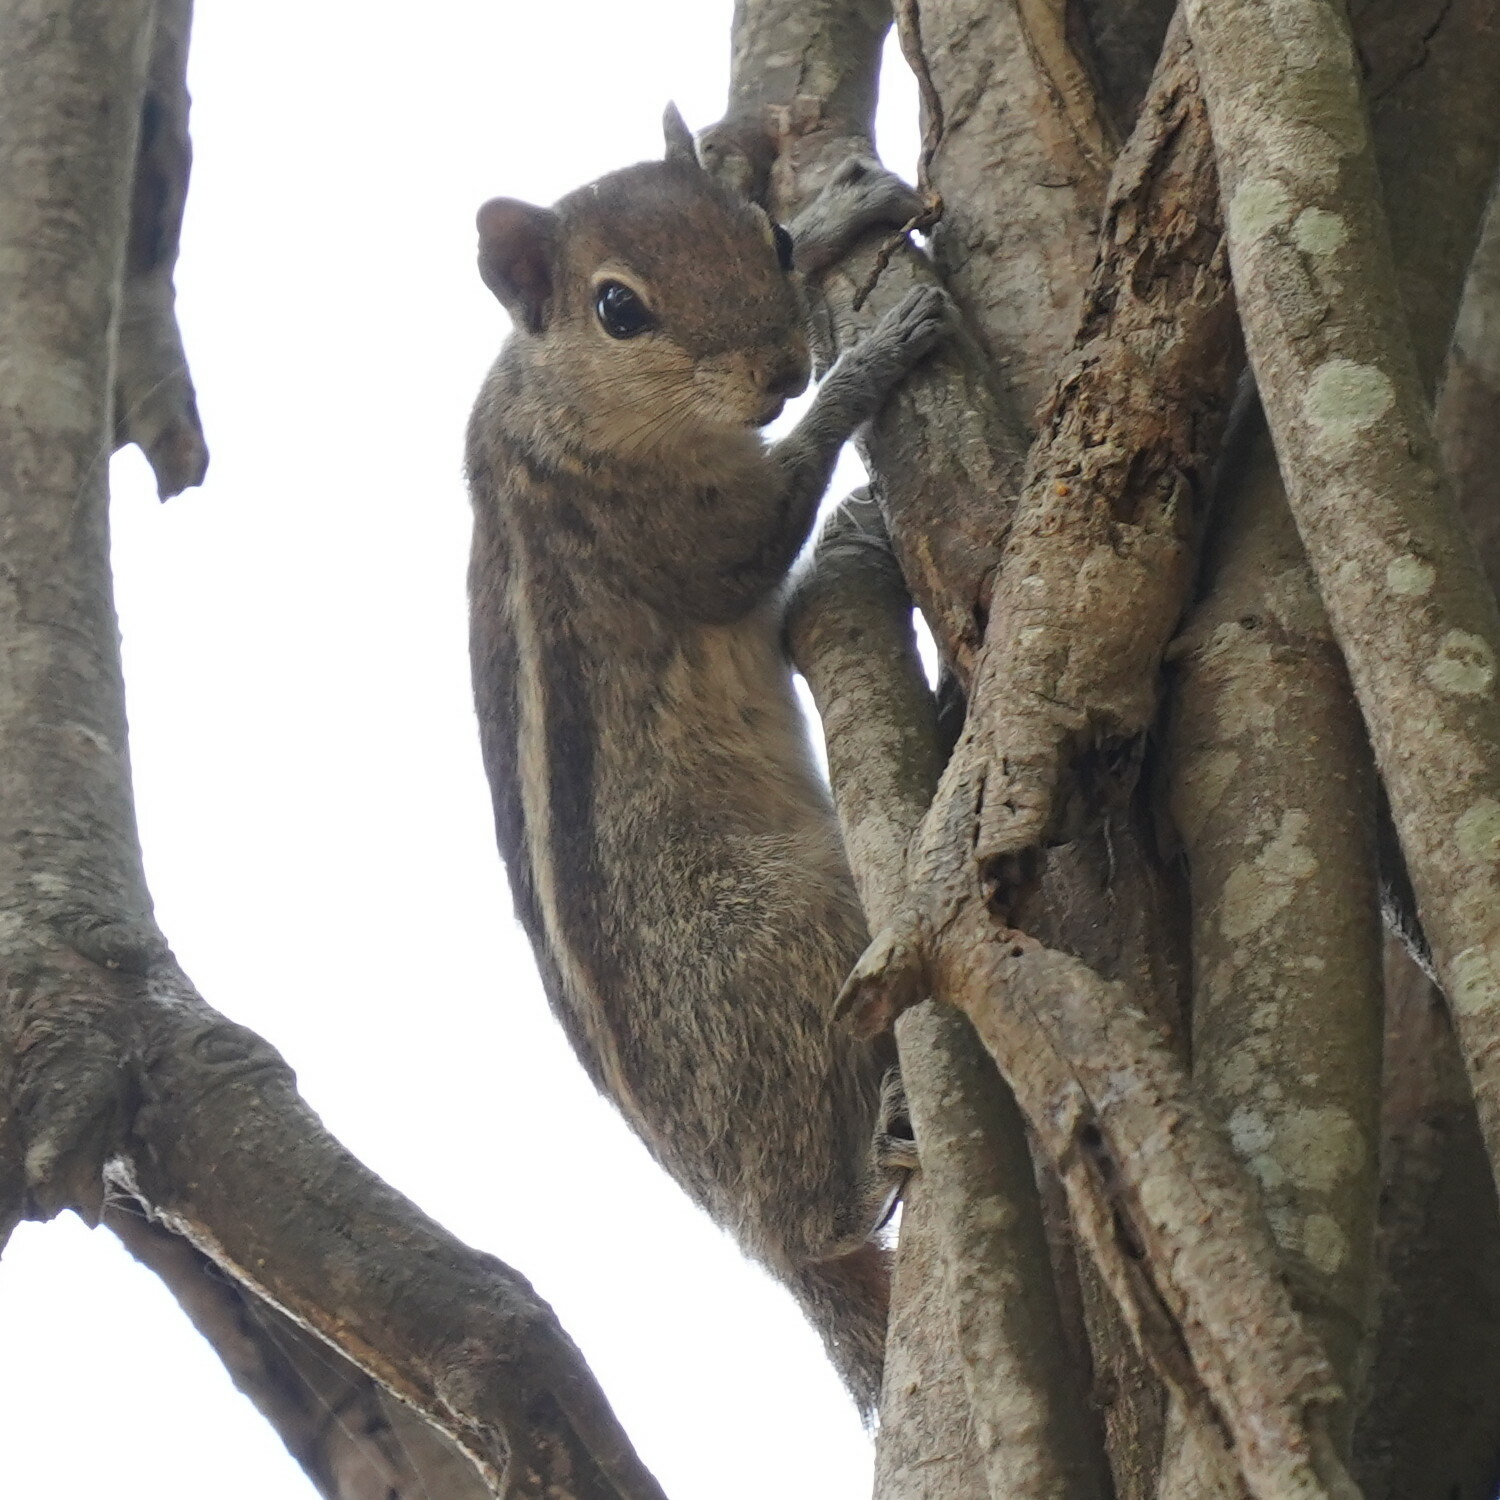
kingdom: Animalia
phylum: Chordata
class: Mammalia
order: Rodentia
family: Sciuridae
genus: Funambulus
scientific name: Funambulus palmarum
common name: Indian palm squirrel
